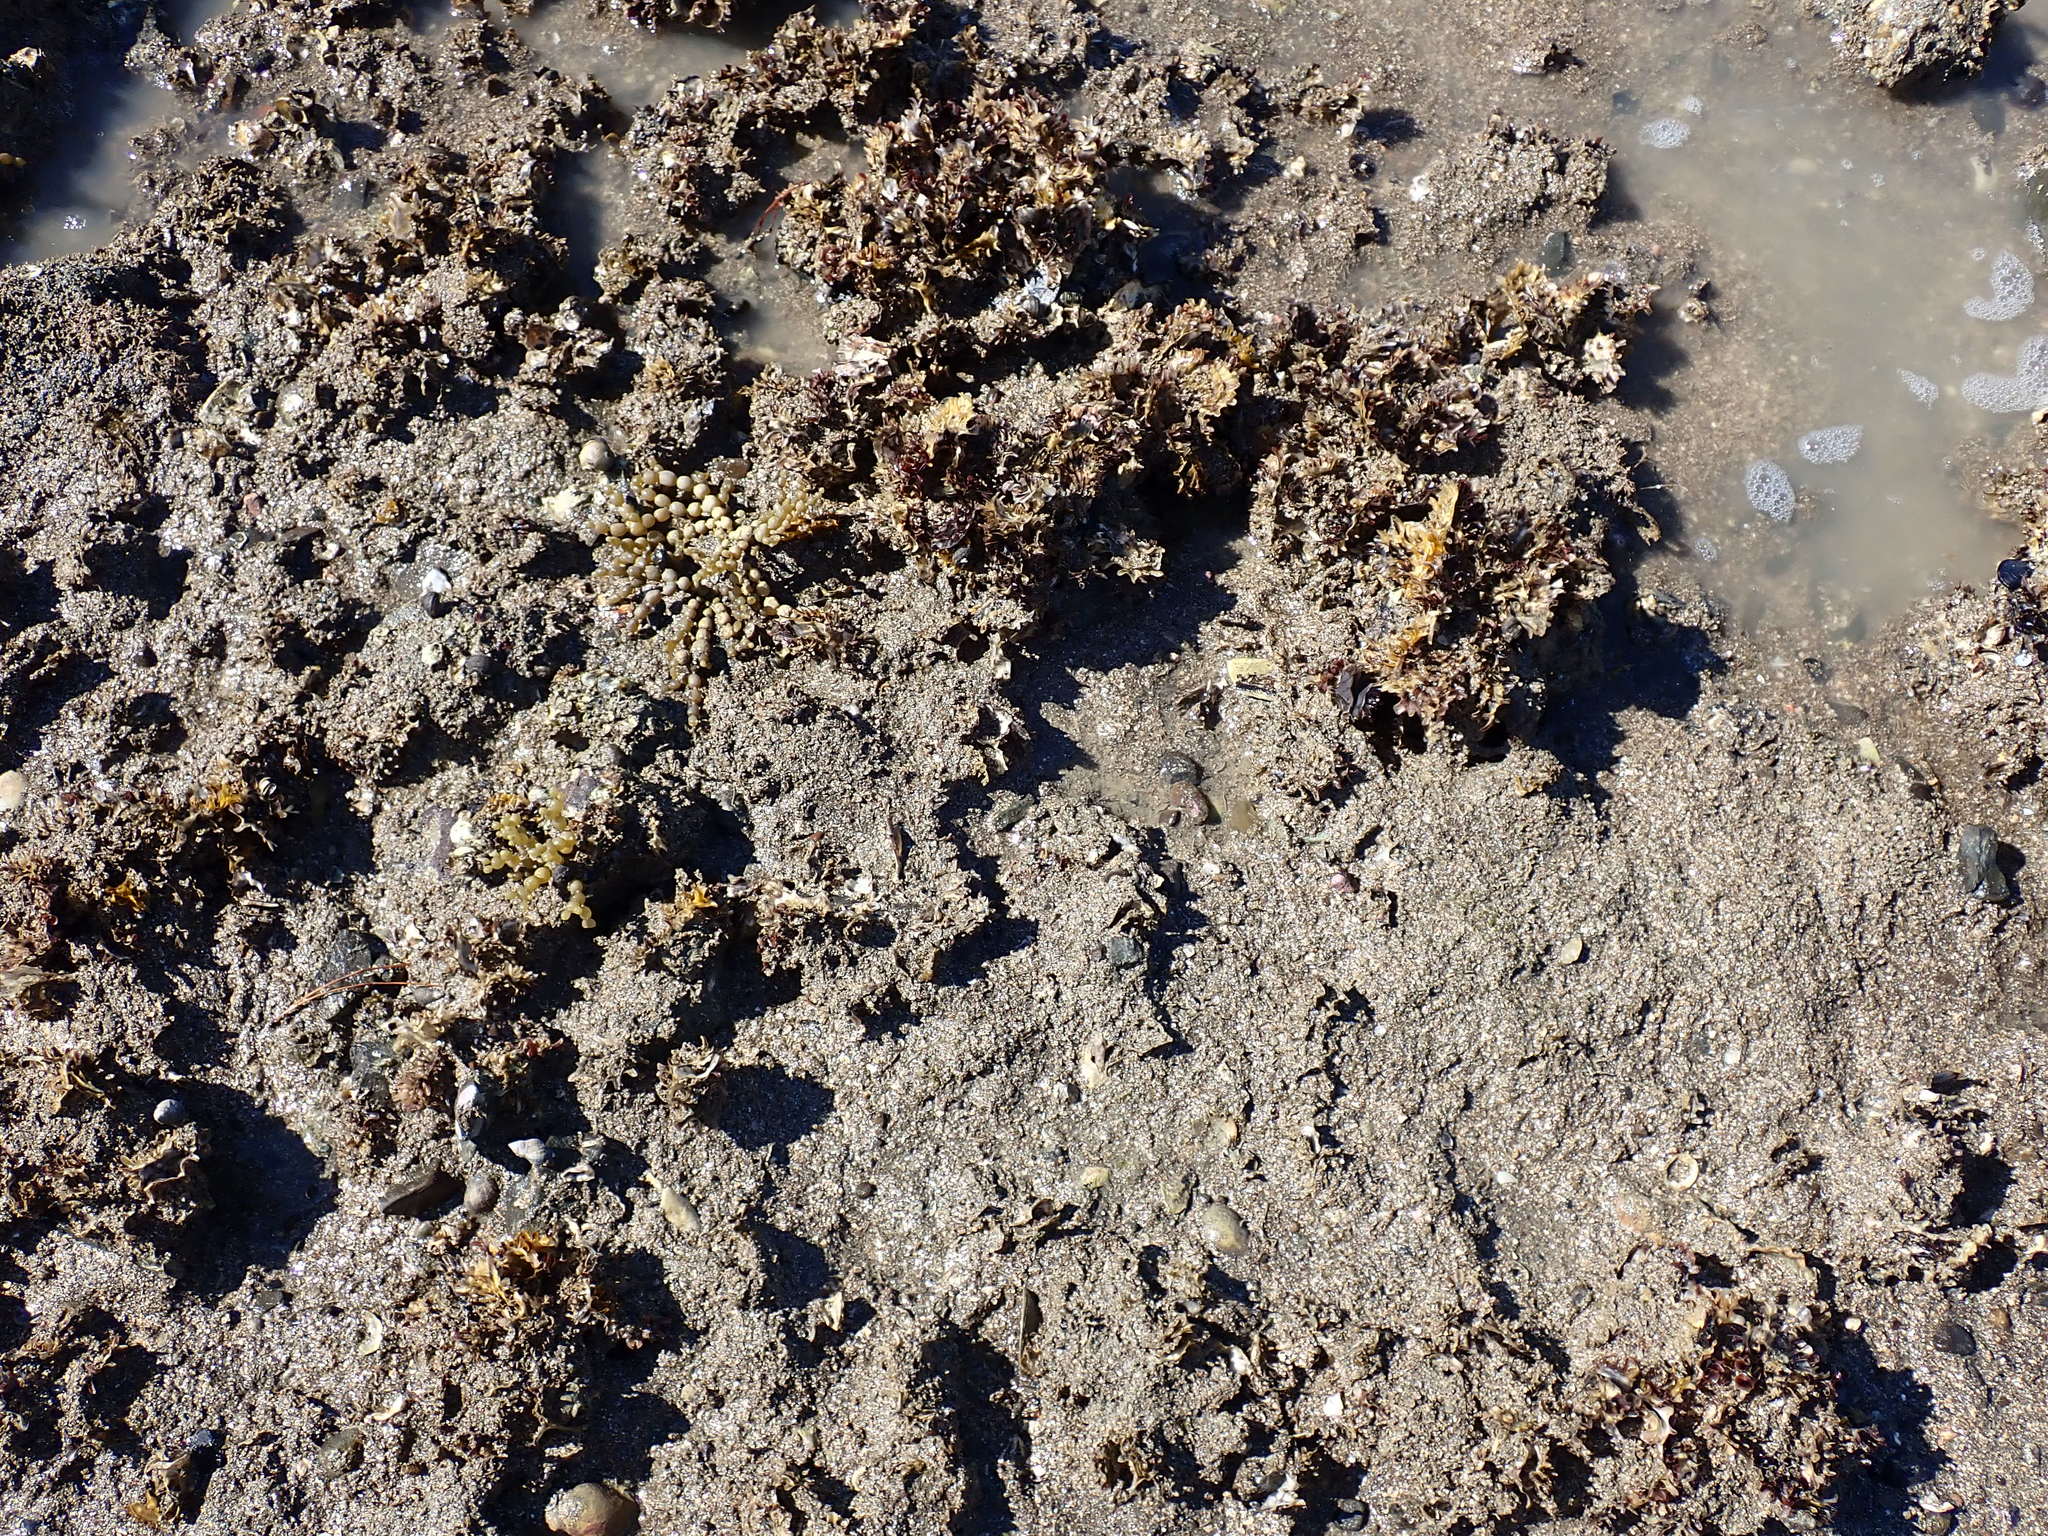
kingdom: Animalia
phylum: Mollusca
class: Bivalvia
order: Ostreida
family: Ostreidae
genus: Magallana
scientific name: Magallana gigas
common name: Pacific oyster
